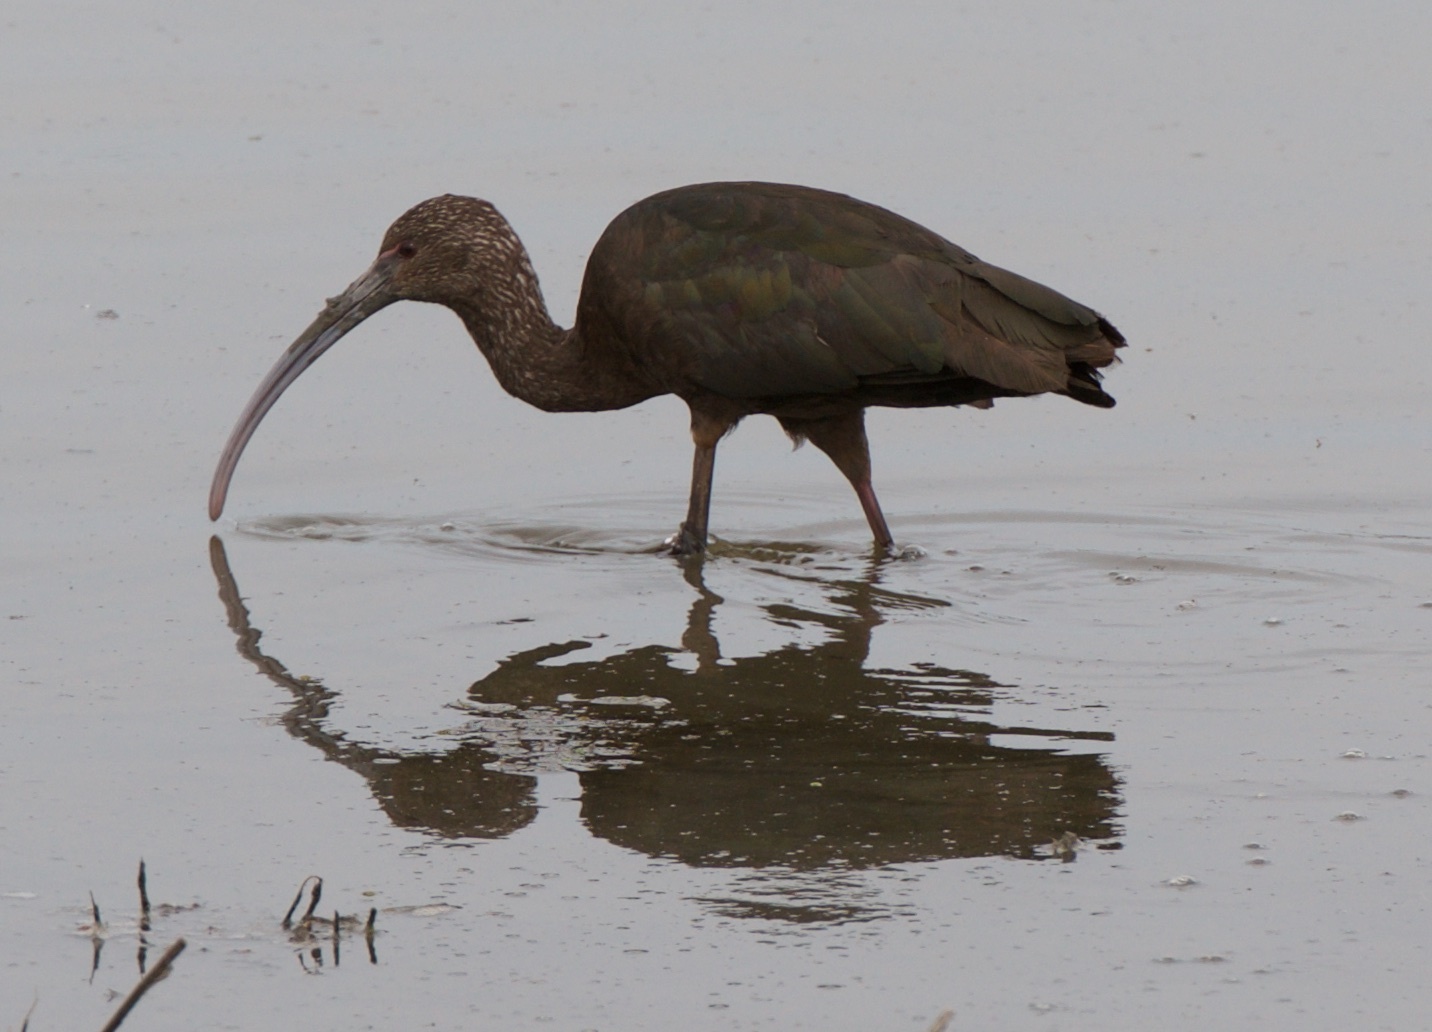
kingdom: Animalia
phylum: Chordata
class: Aves
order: Pelecaniformes
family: Threskiornithidae
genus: Plegadis
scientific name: Plegadis chihi
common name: White-faced ibis
